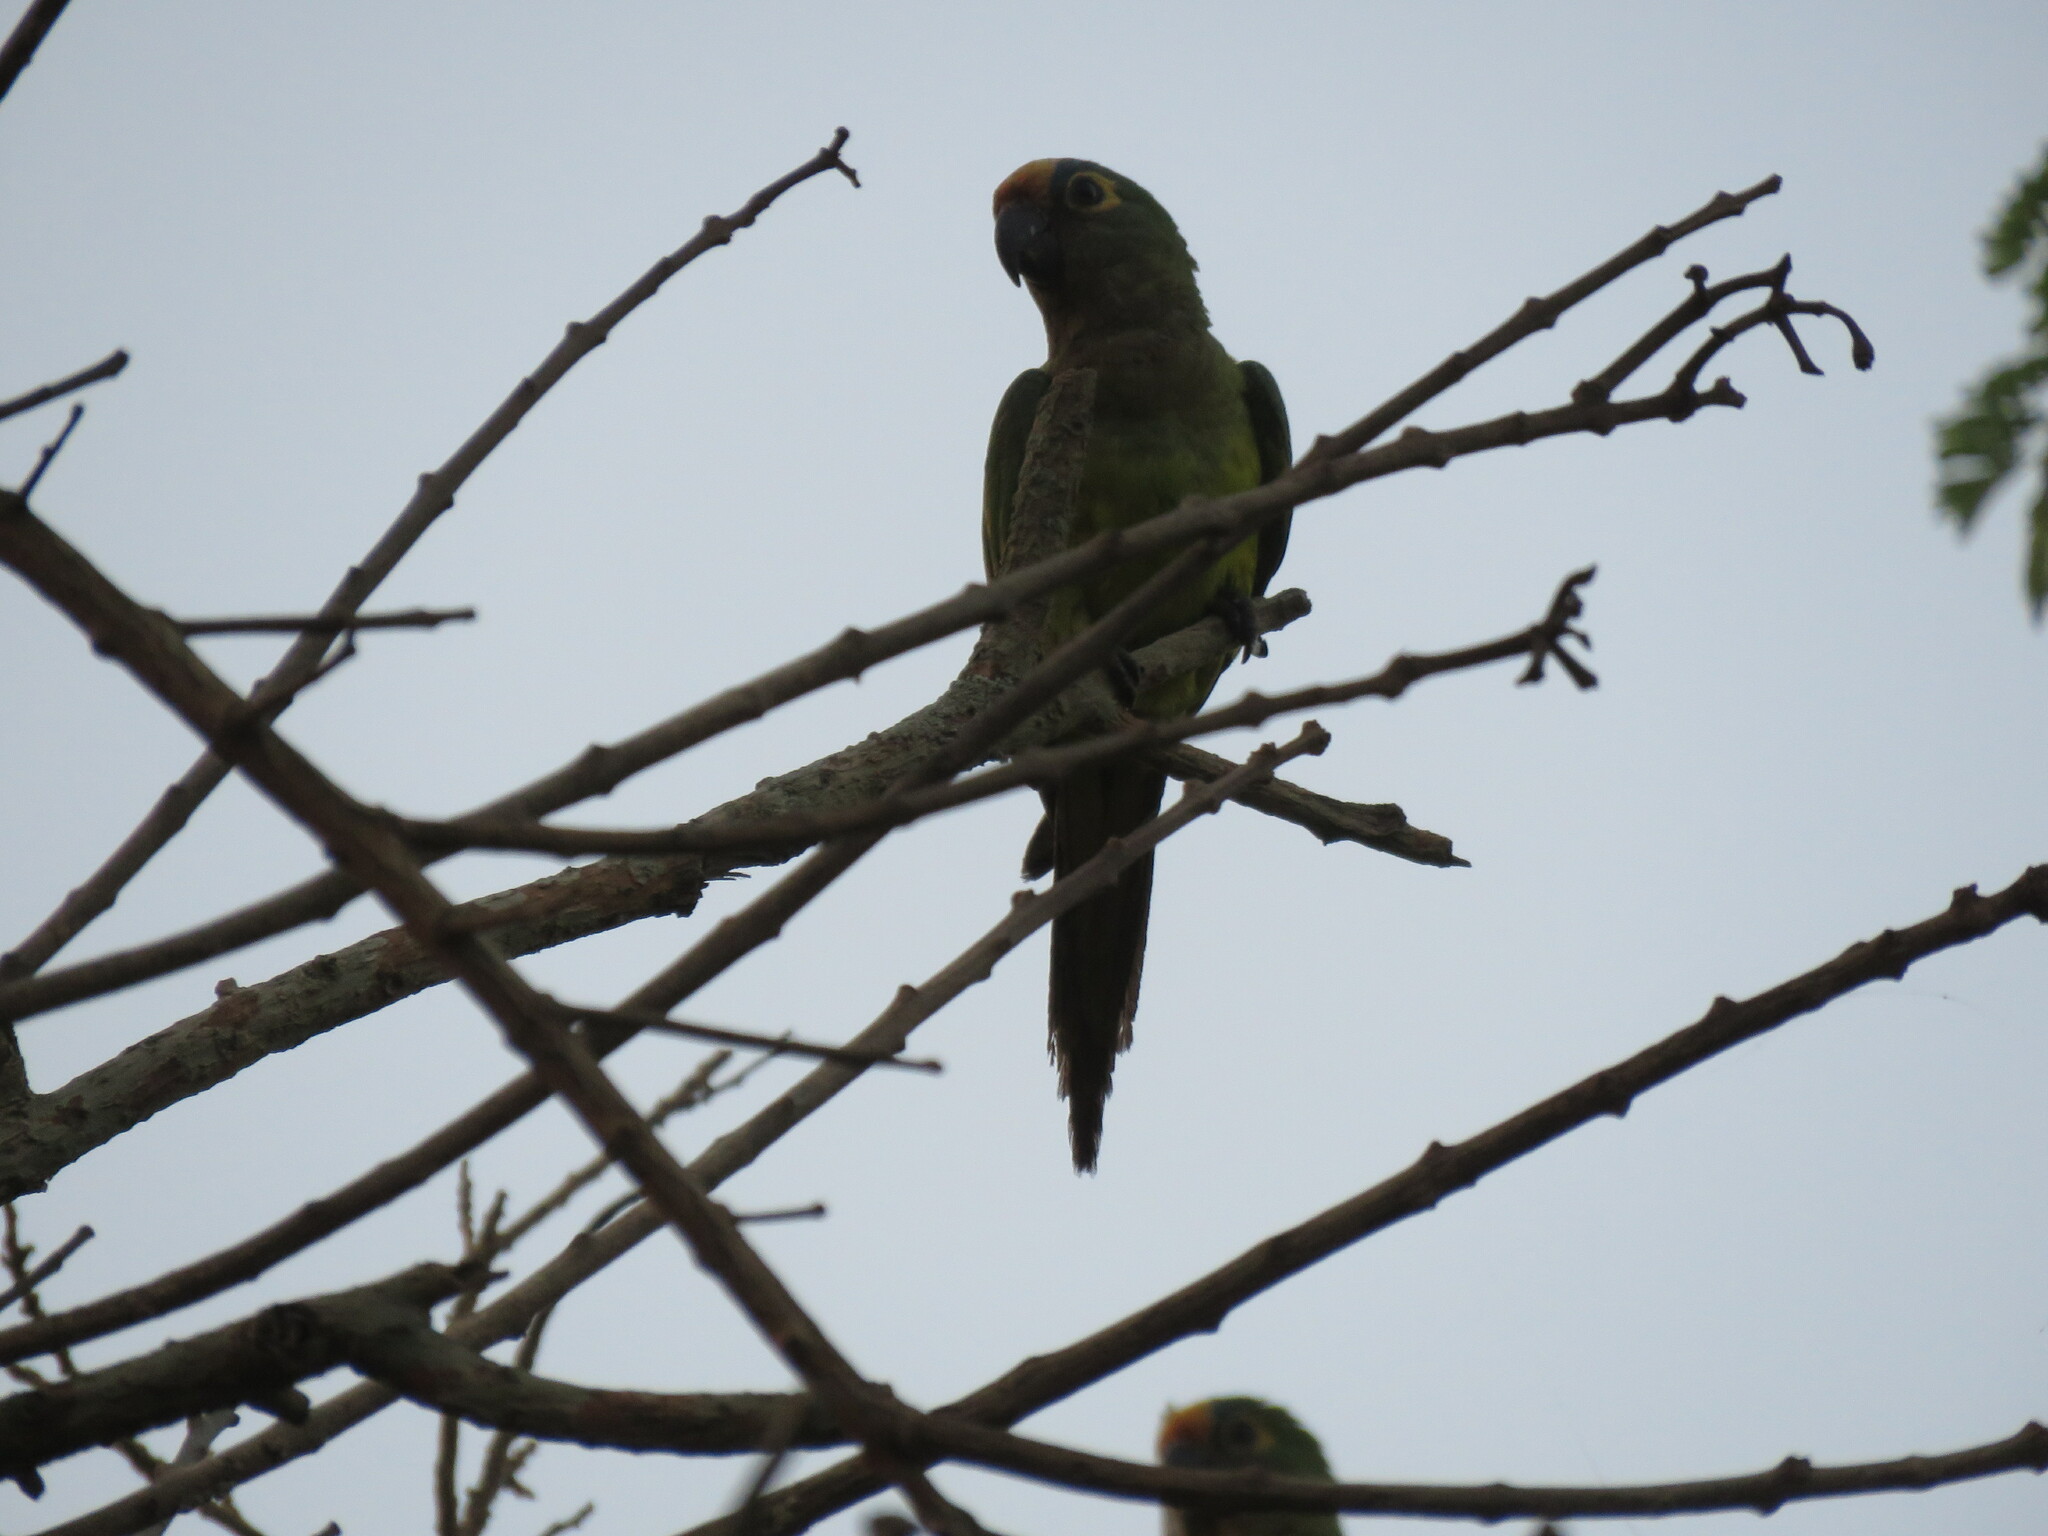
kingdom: Animalia
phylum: Chordata
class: Aves
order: Psittaciformes
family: Psittacidae
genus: Aratinga
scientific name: Aratinga aurea
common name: Peach-fronted parakeet
